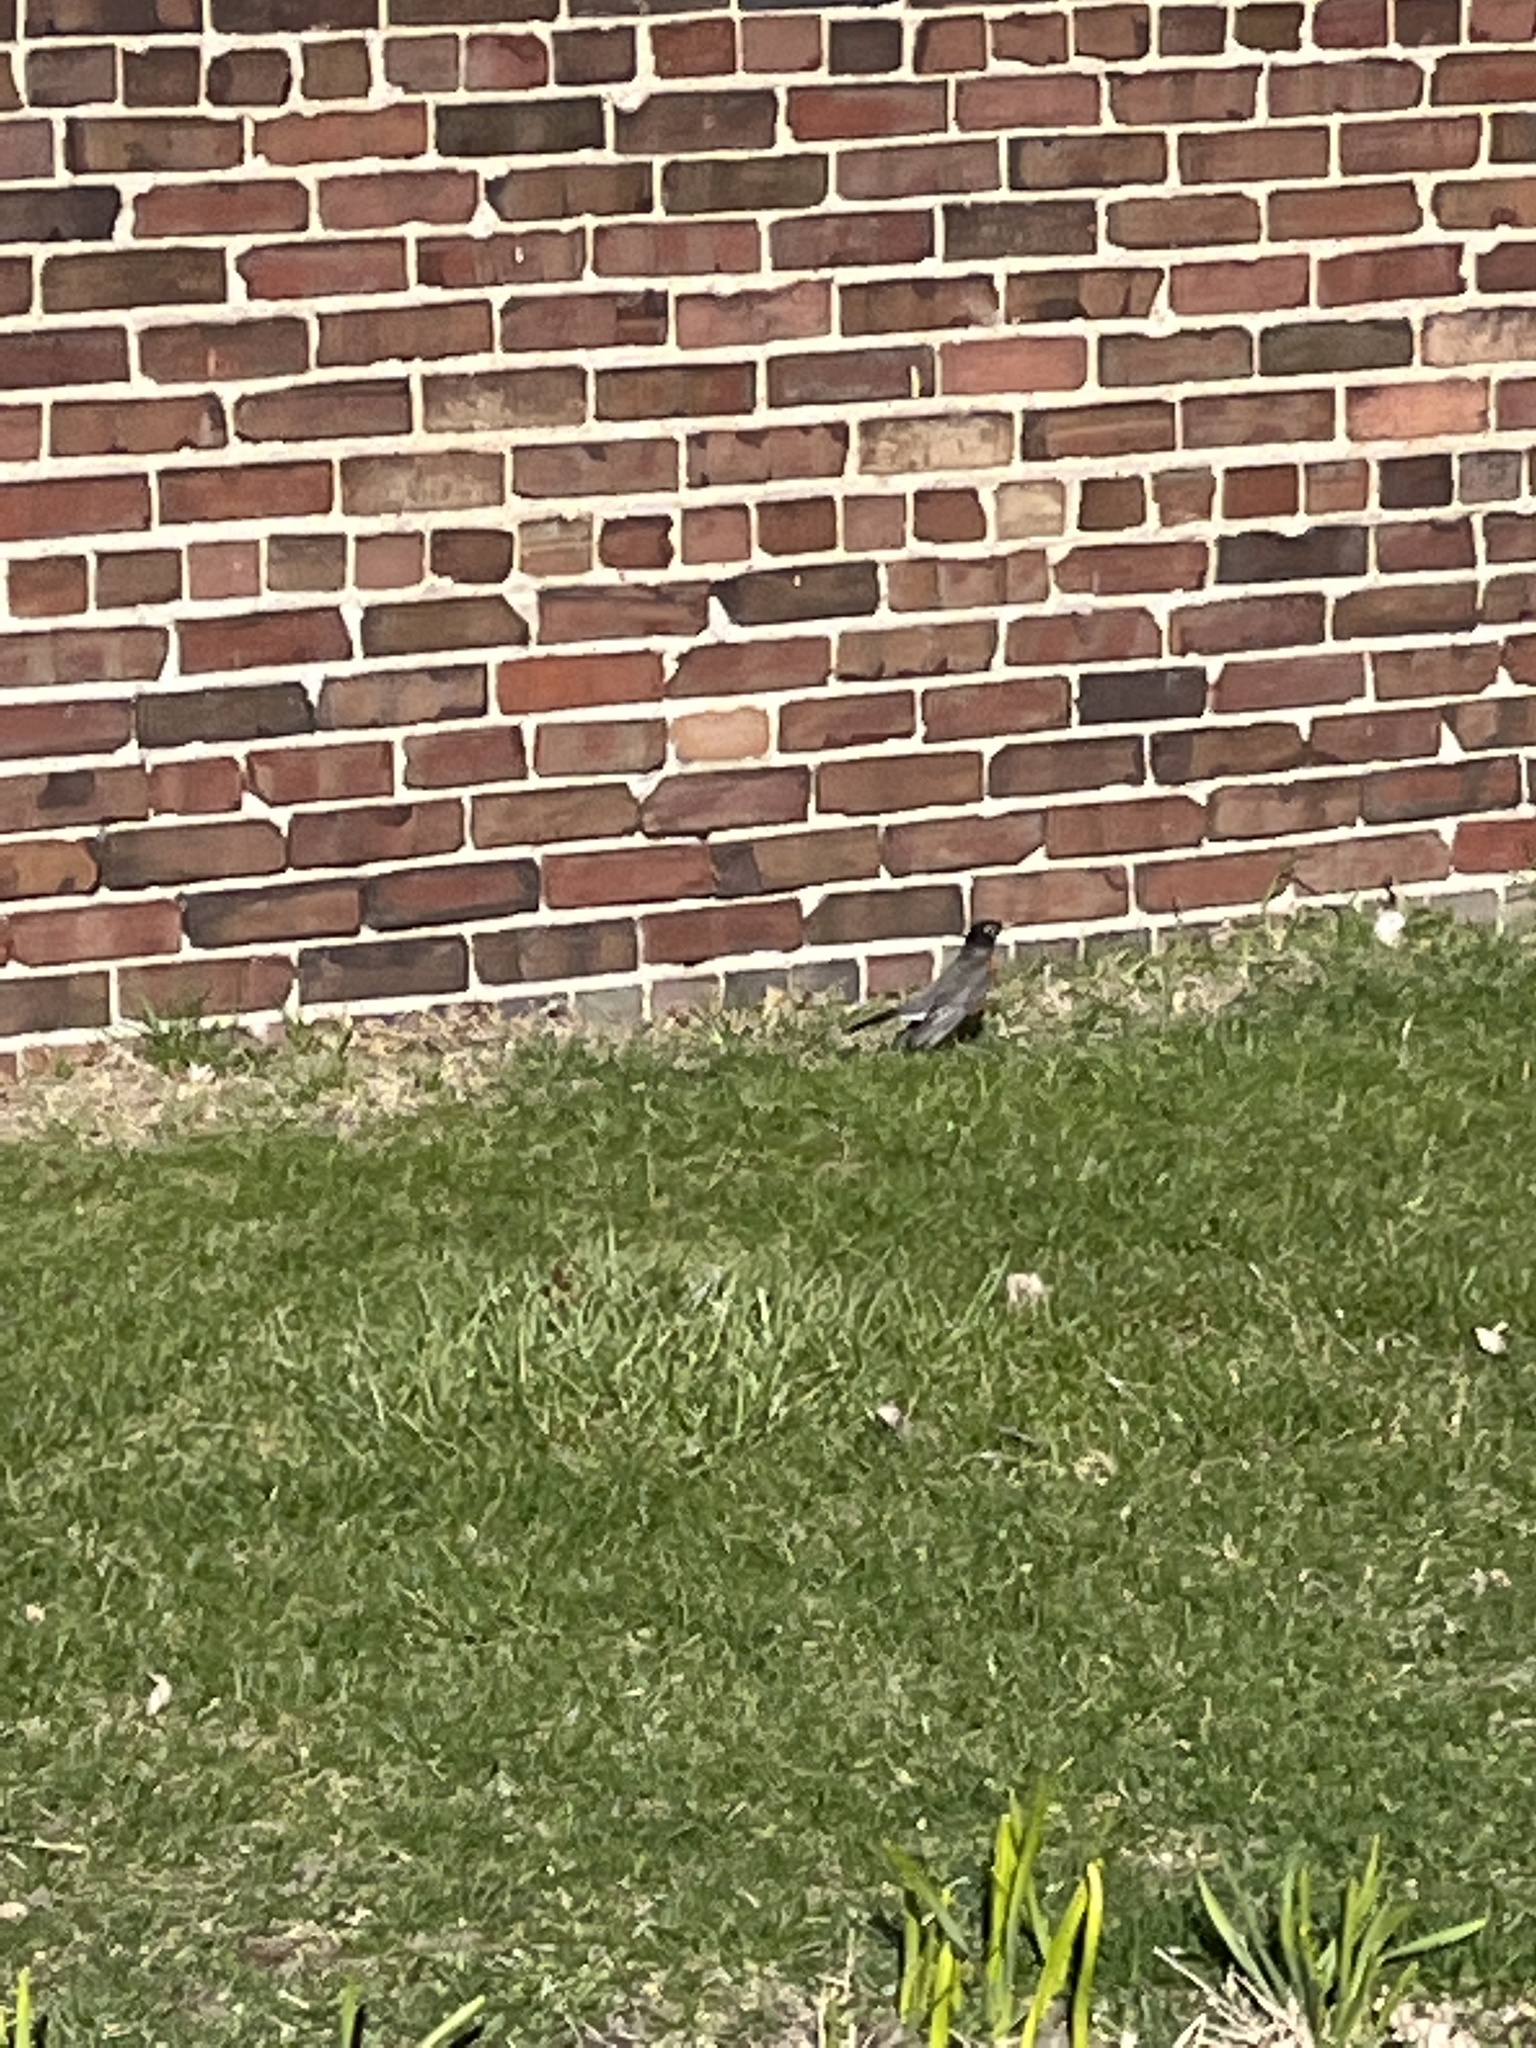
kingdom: Animalia
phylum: Chordata
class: Aves
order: Passeriformes
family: Turdidae
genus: Turdus
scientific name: Turdus migratorius
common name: American robin
